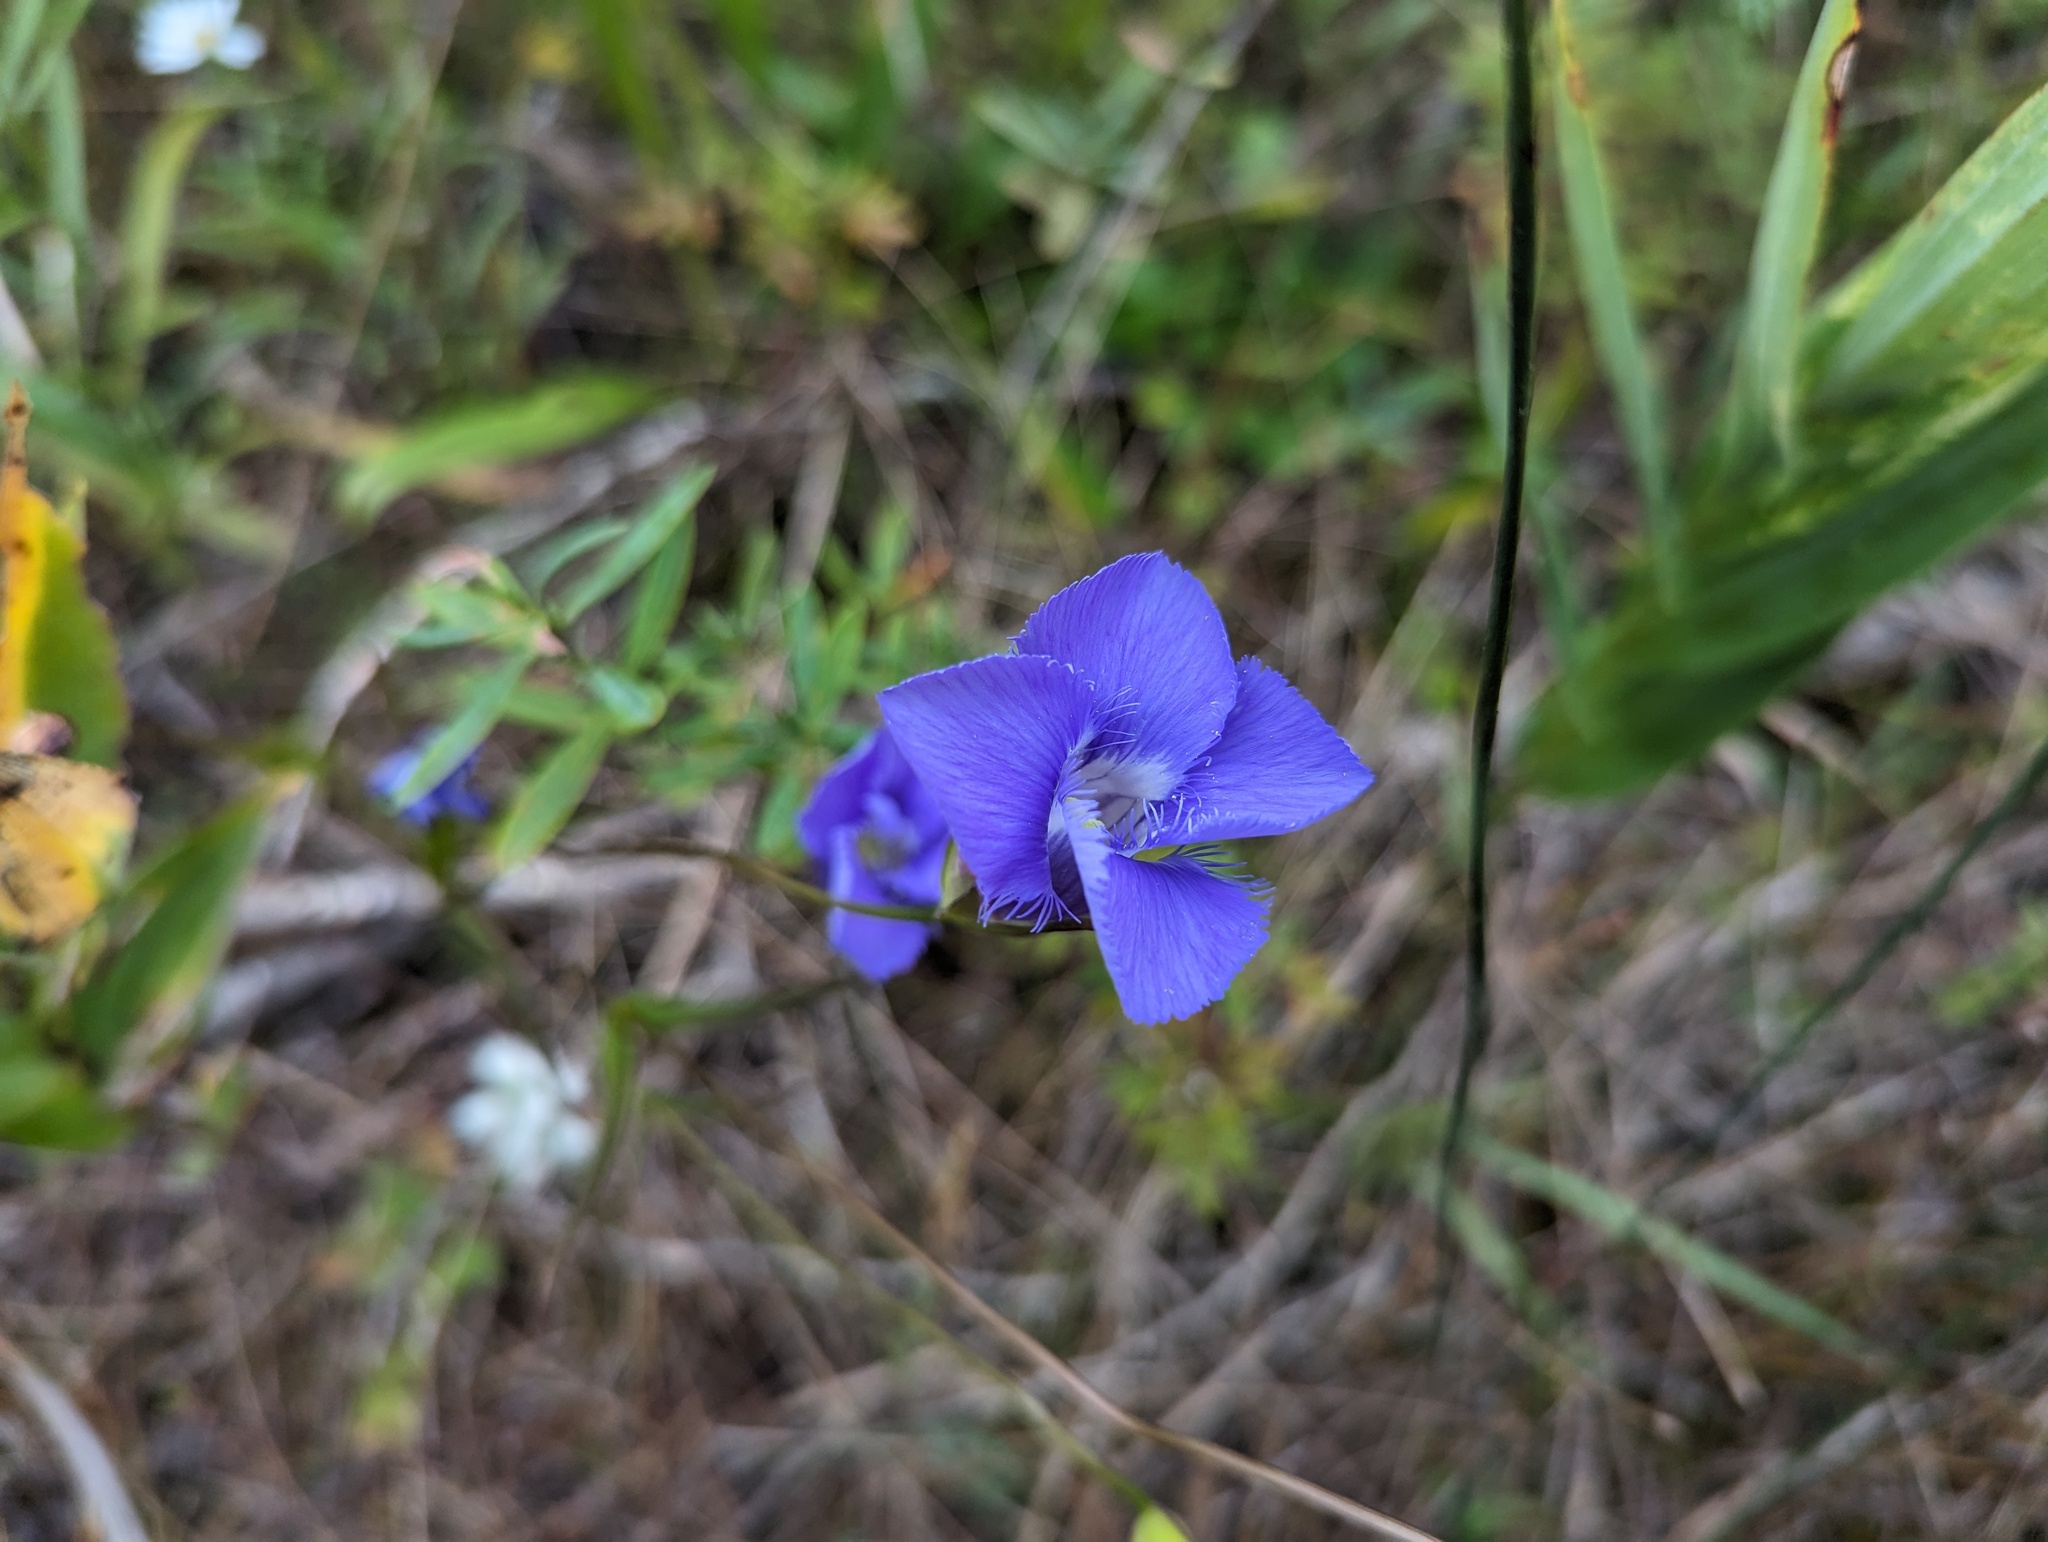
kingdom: Plantae
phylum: Tracheophyta
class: Magnoliopsida
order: Gentianales
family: Gentianaceae
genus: Gentianopsis
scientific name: Gentianopsis virgata
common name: Lesser fringed-gentian
